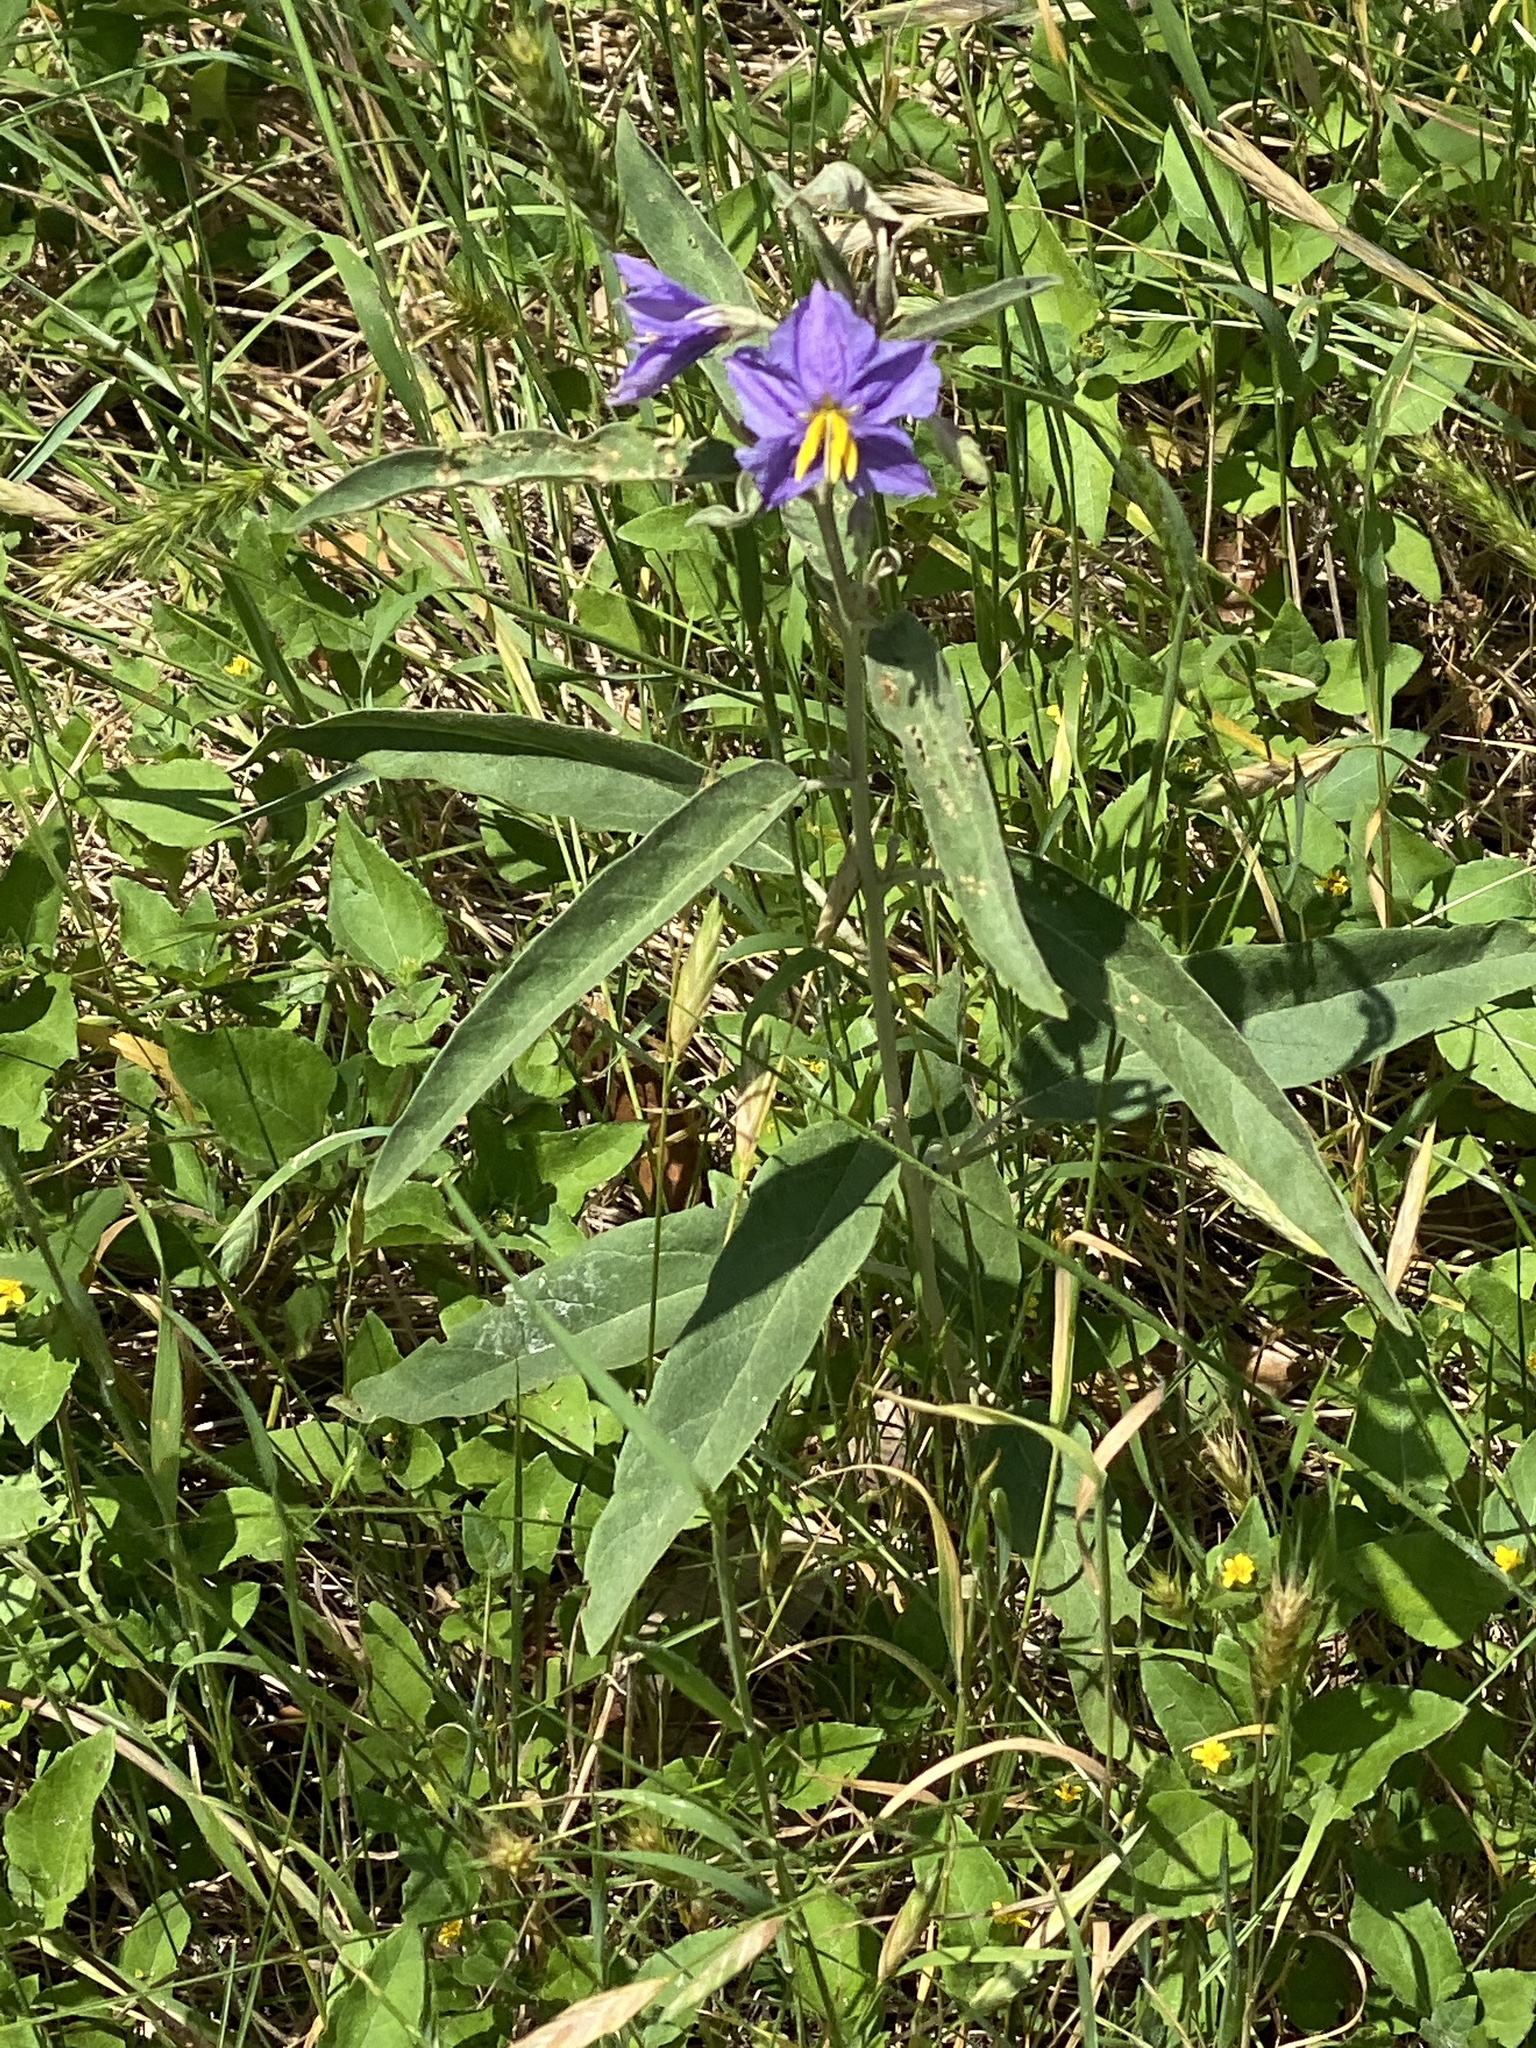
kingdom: Plantae
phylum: Tracheophyta
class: Magnoliopsida
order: Solanales
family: Solanaceae
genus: Solanum
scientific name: Solanum elaeagnifolium
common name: Silverleaf nightshade
